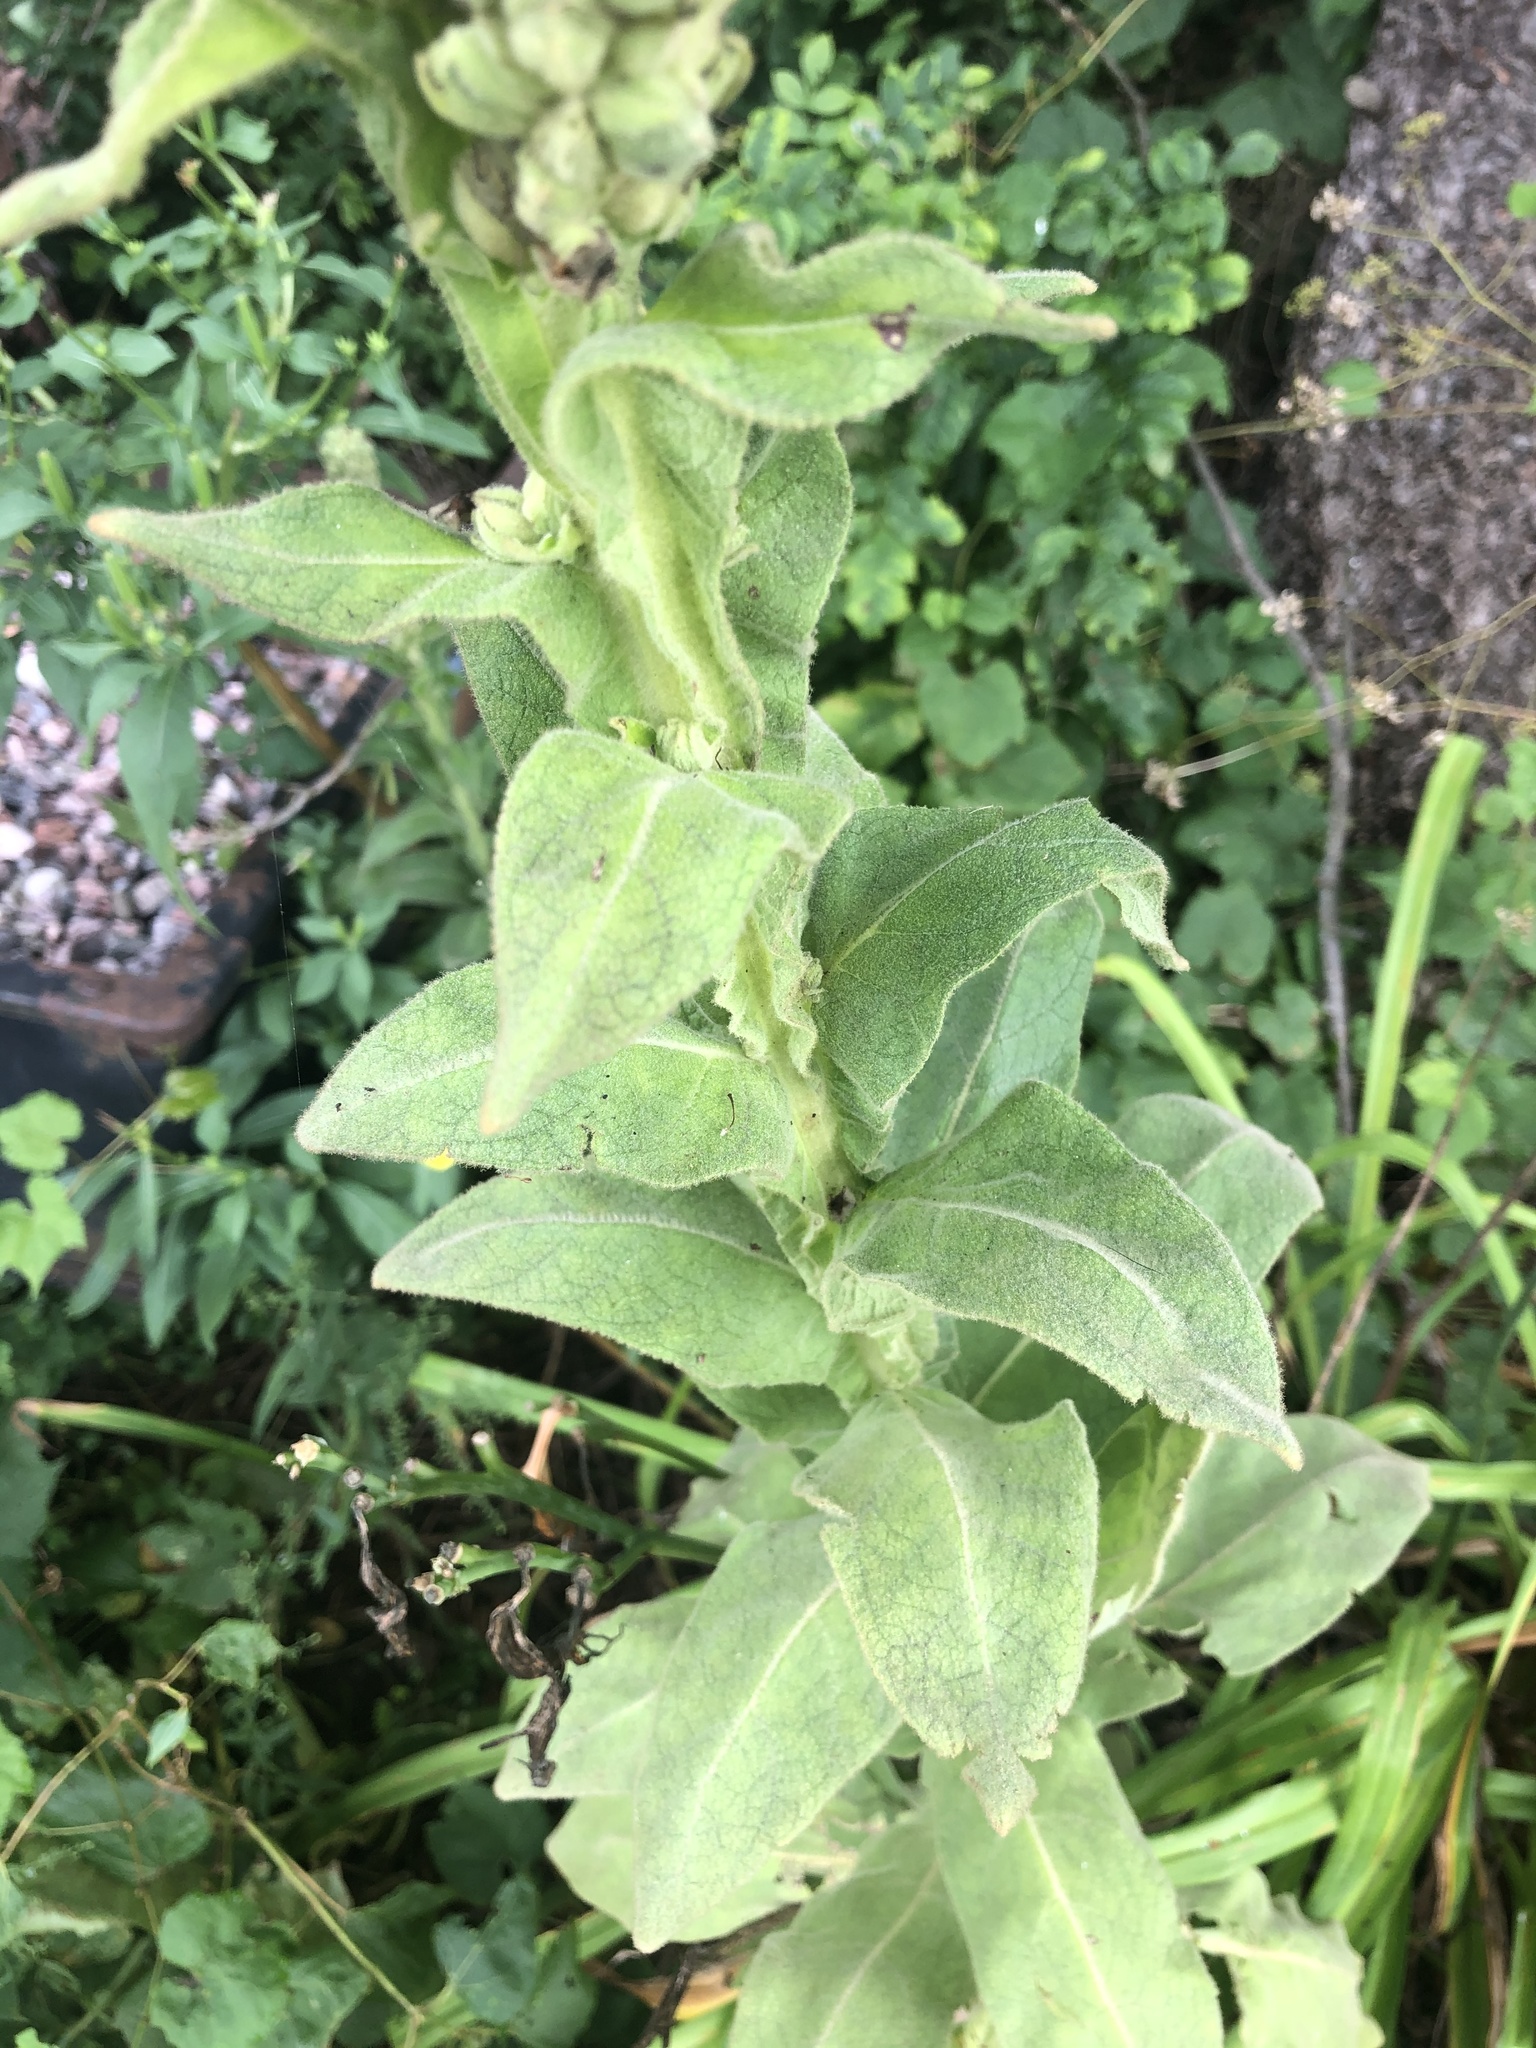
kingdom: Plantae
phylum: Tracheophyta
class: Magnoliopsida
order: Lamiales
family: Scrophulariaceae
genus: Verbascum
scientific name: Verbascum thapsus
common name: Common mullein
